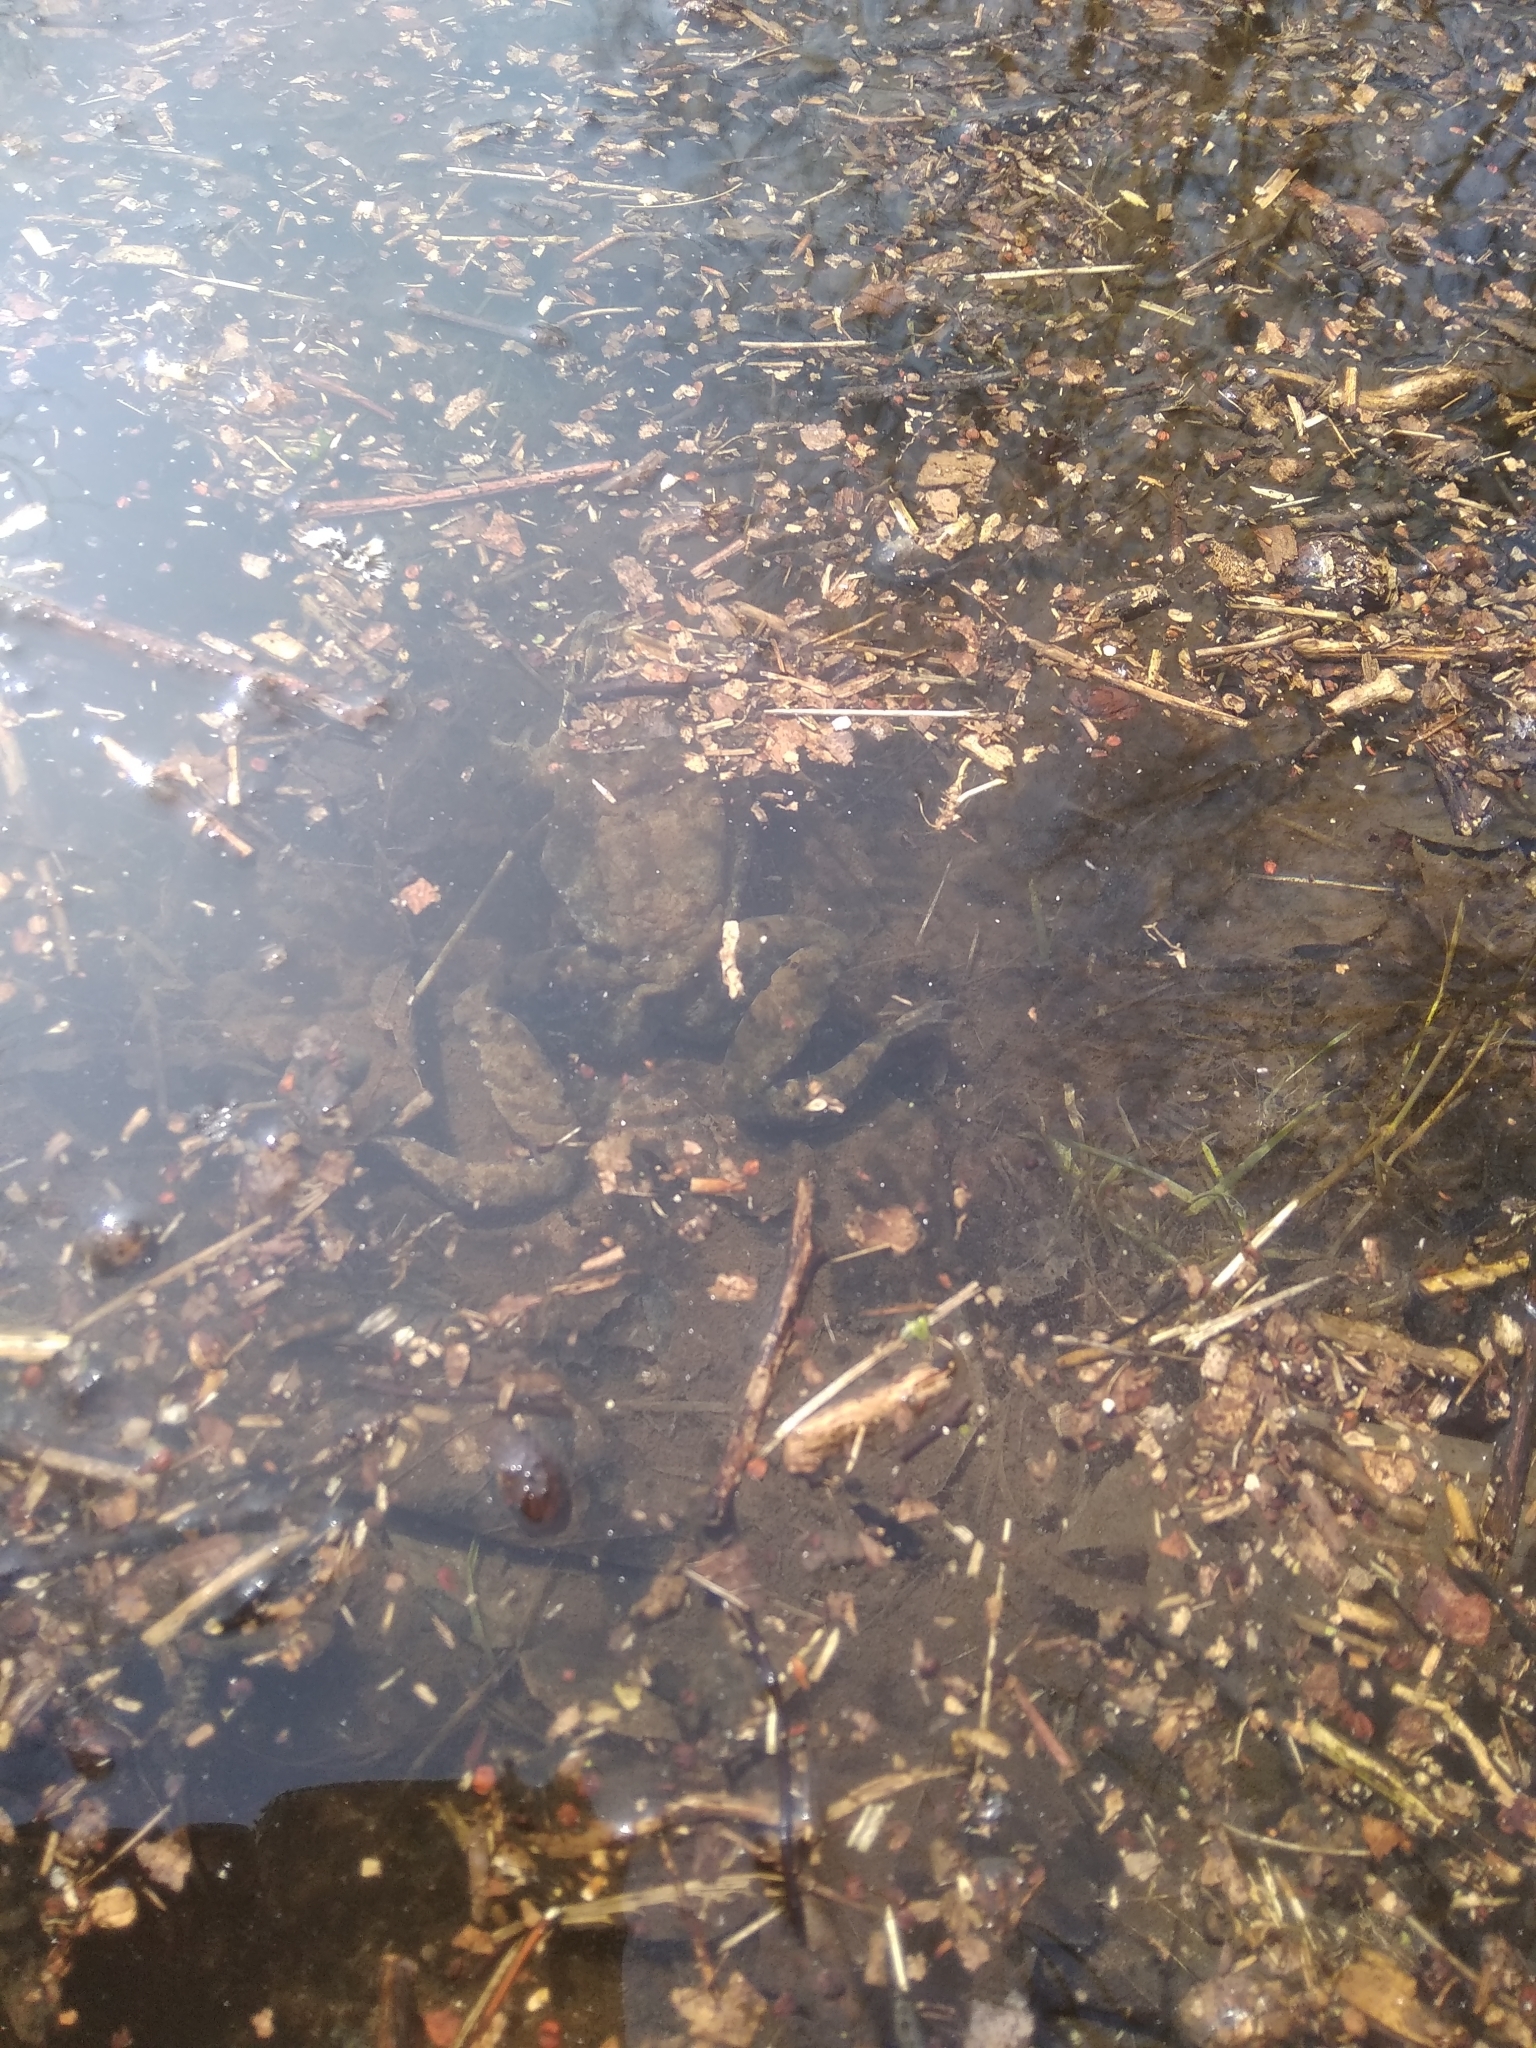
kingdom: Animalia
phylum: Chordata
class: Amphibia
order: Anura
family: Bufonidae
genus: Bufo
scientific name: Bufo bufo
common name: Common toad
